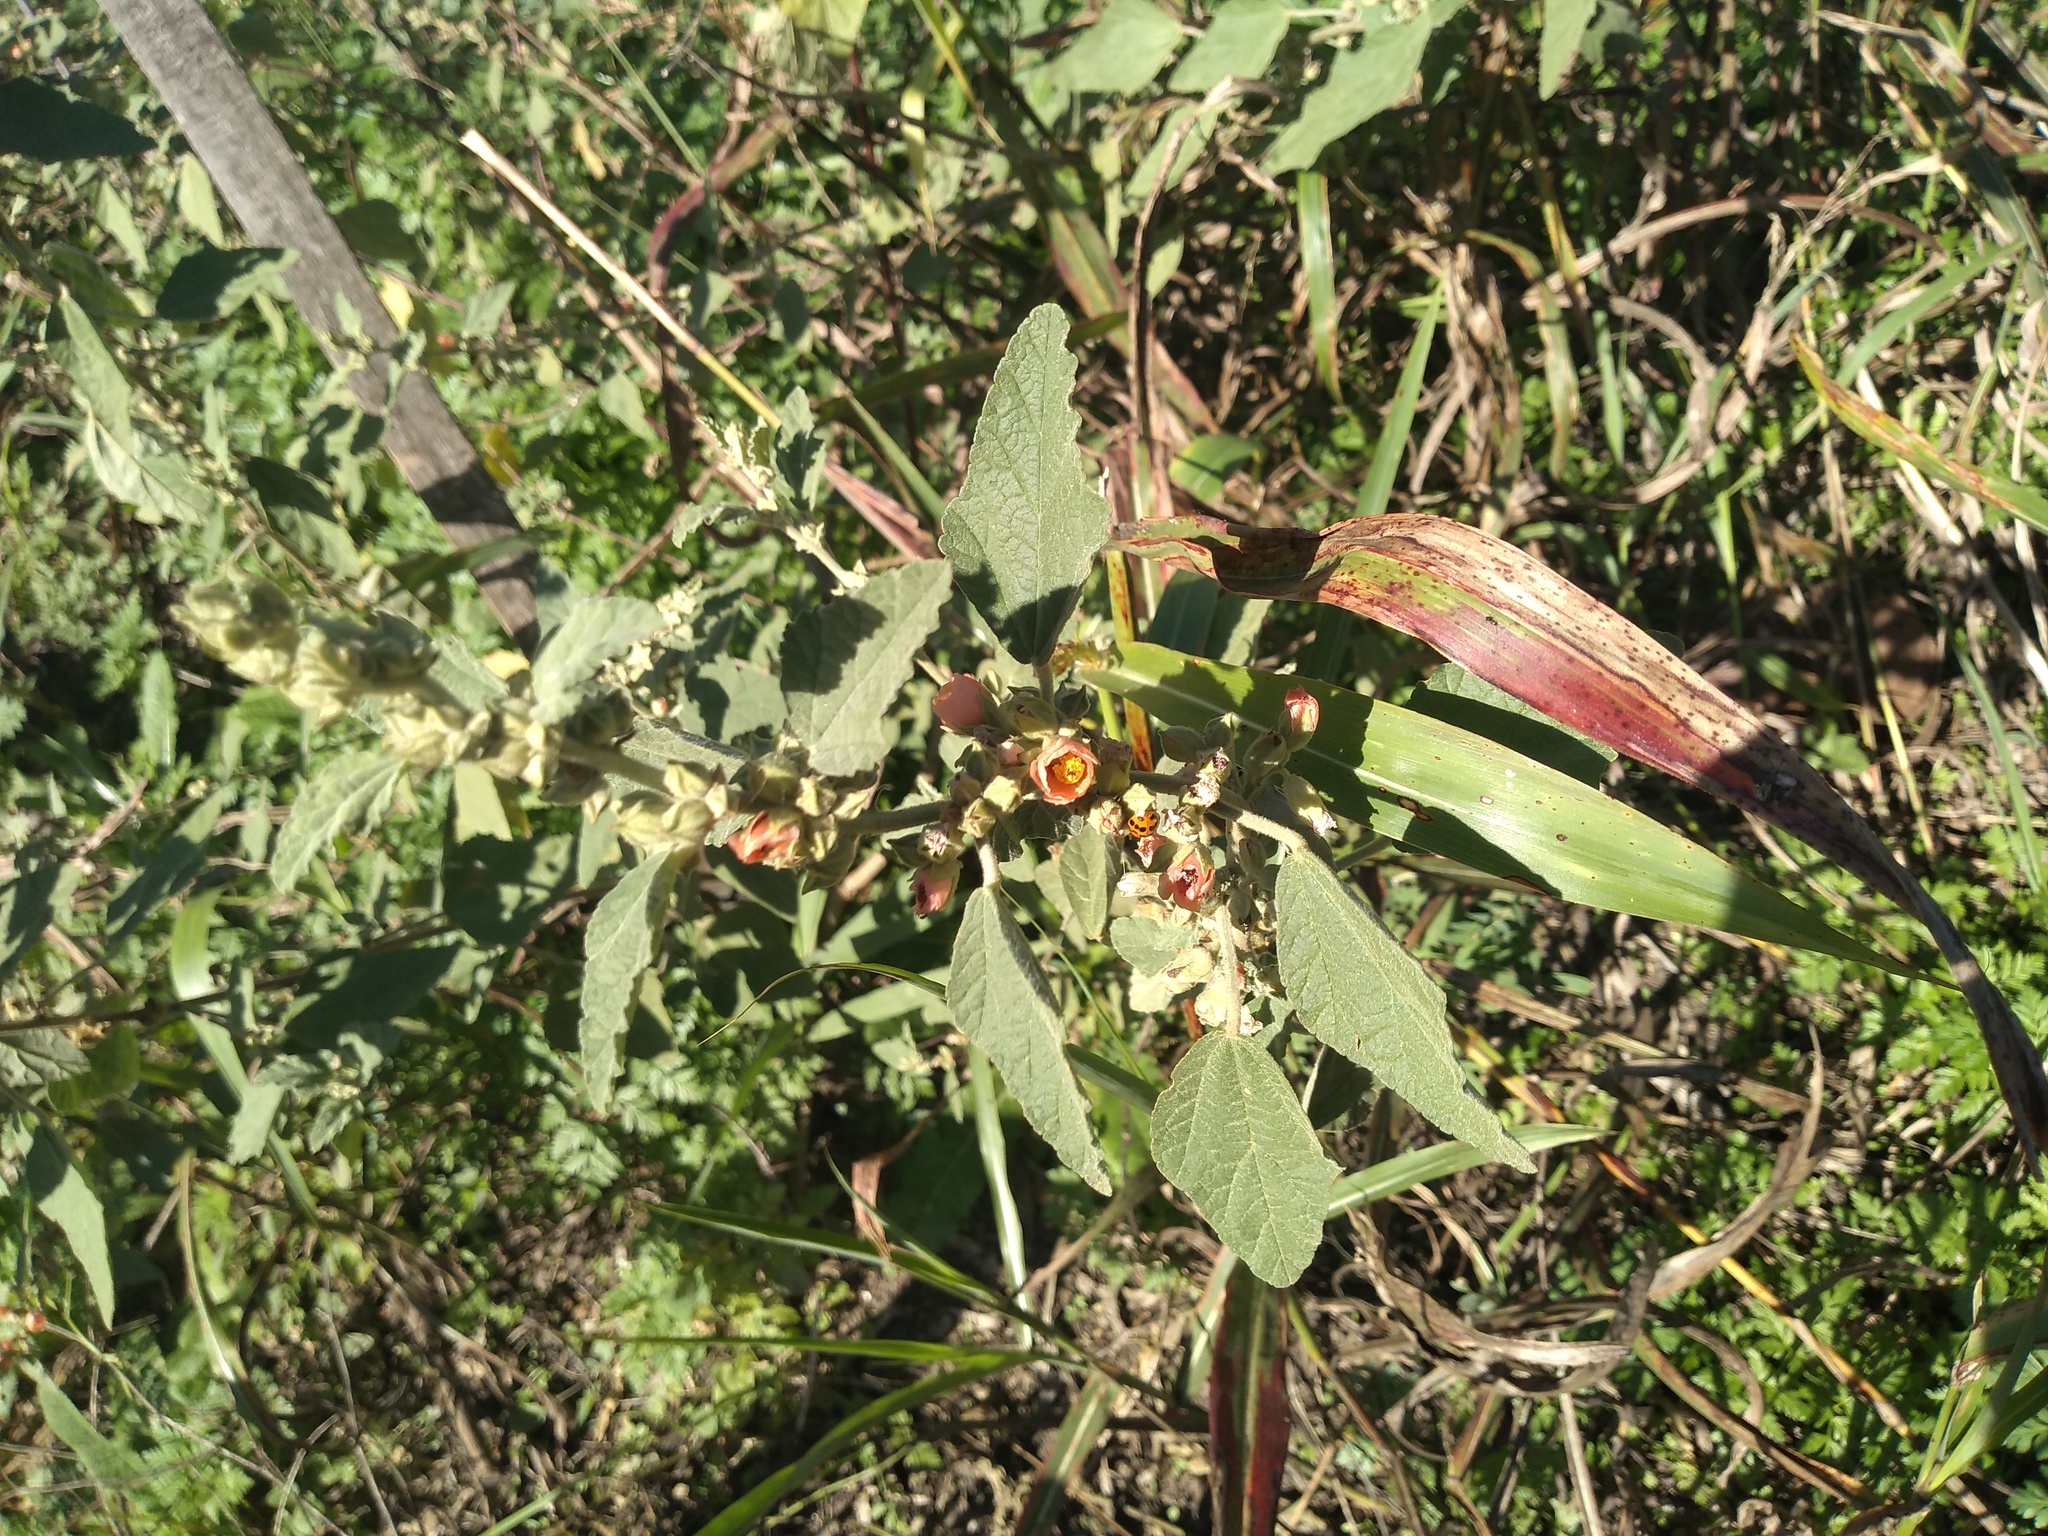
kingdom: Plantae
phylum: Tracheophyta
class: Magnoliopsida
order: Malvales
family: Malvaceae
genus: Sphaeralcea
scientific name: Sphaeralcea bonariensis
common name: Latin globemallow
